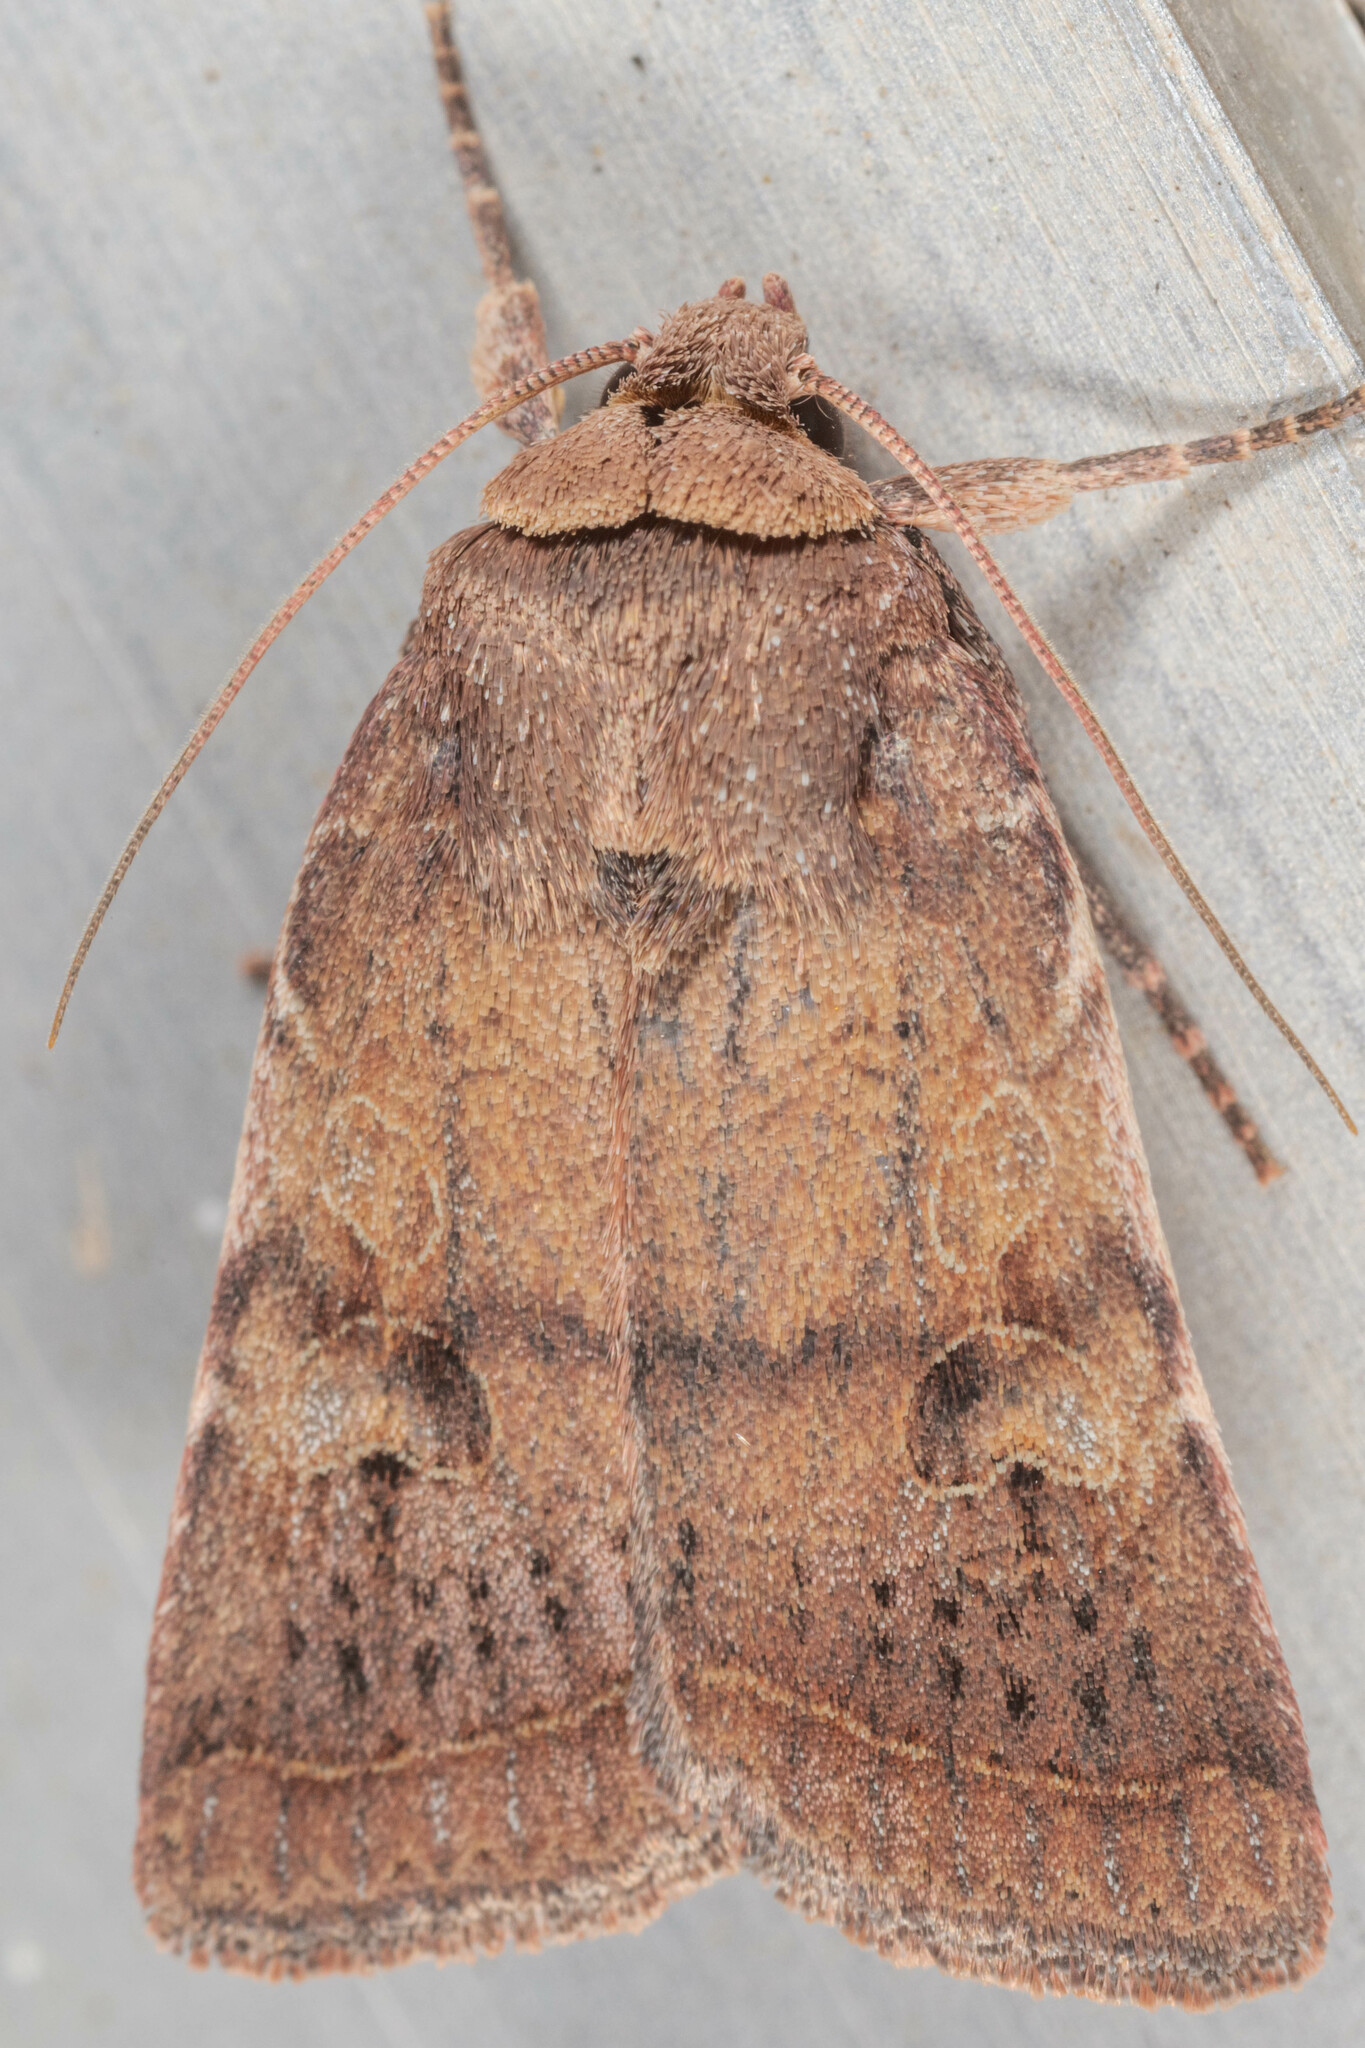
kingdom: Animalia
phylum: Arthropoda
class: Insecta
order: Lepidoptera
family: Noctuidae
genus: Orthodes
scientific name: Orthodes furtiva
